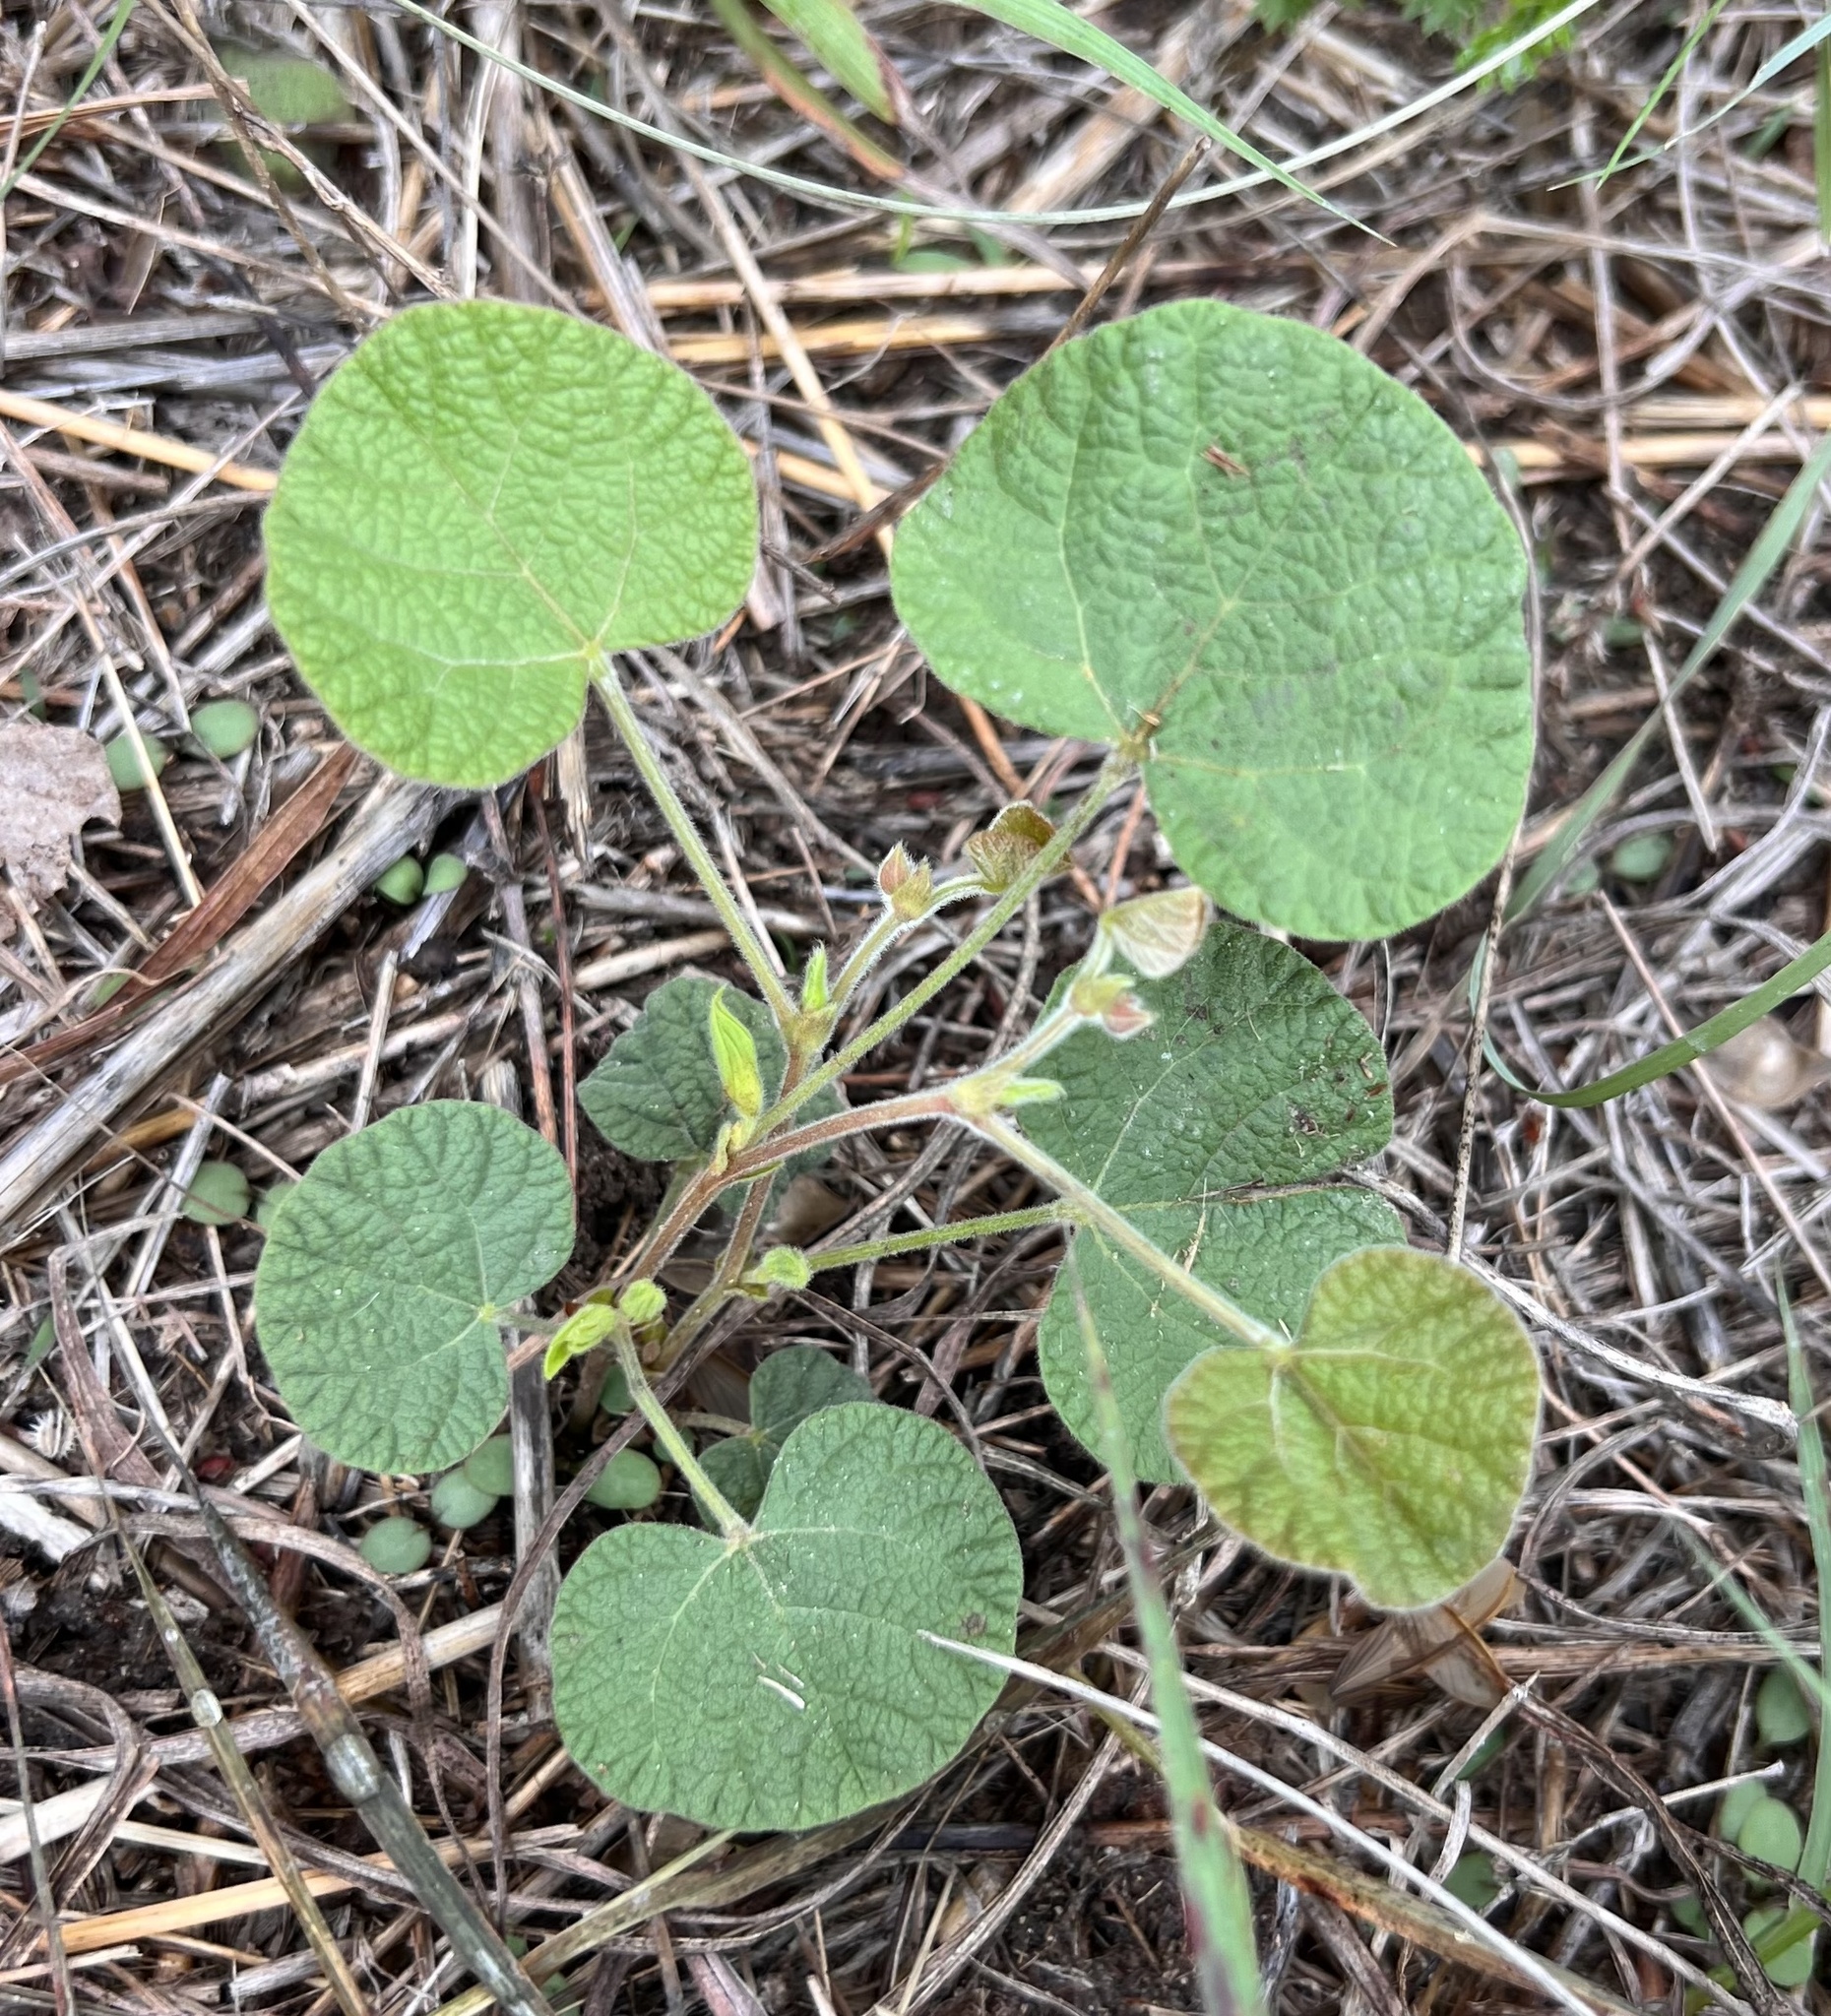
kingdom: Plantae
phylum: Tracheophyta
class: Magnoliopsida
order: Fabales
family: Fabaceae
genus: Rhynchosia
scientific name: Rhynchosia americana
